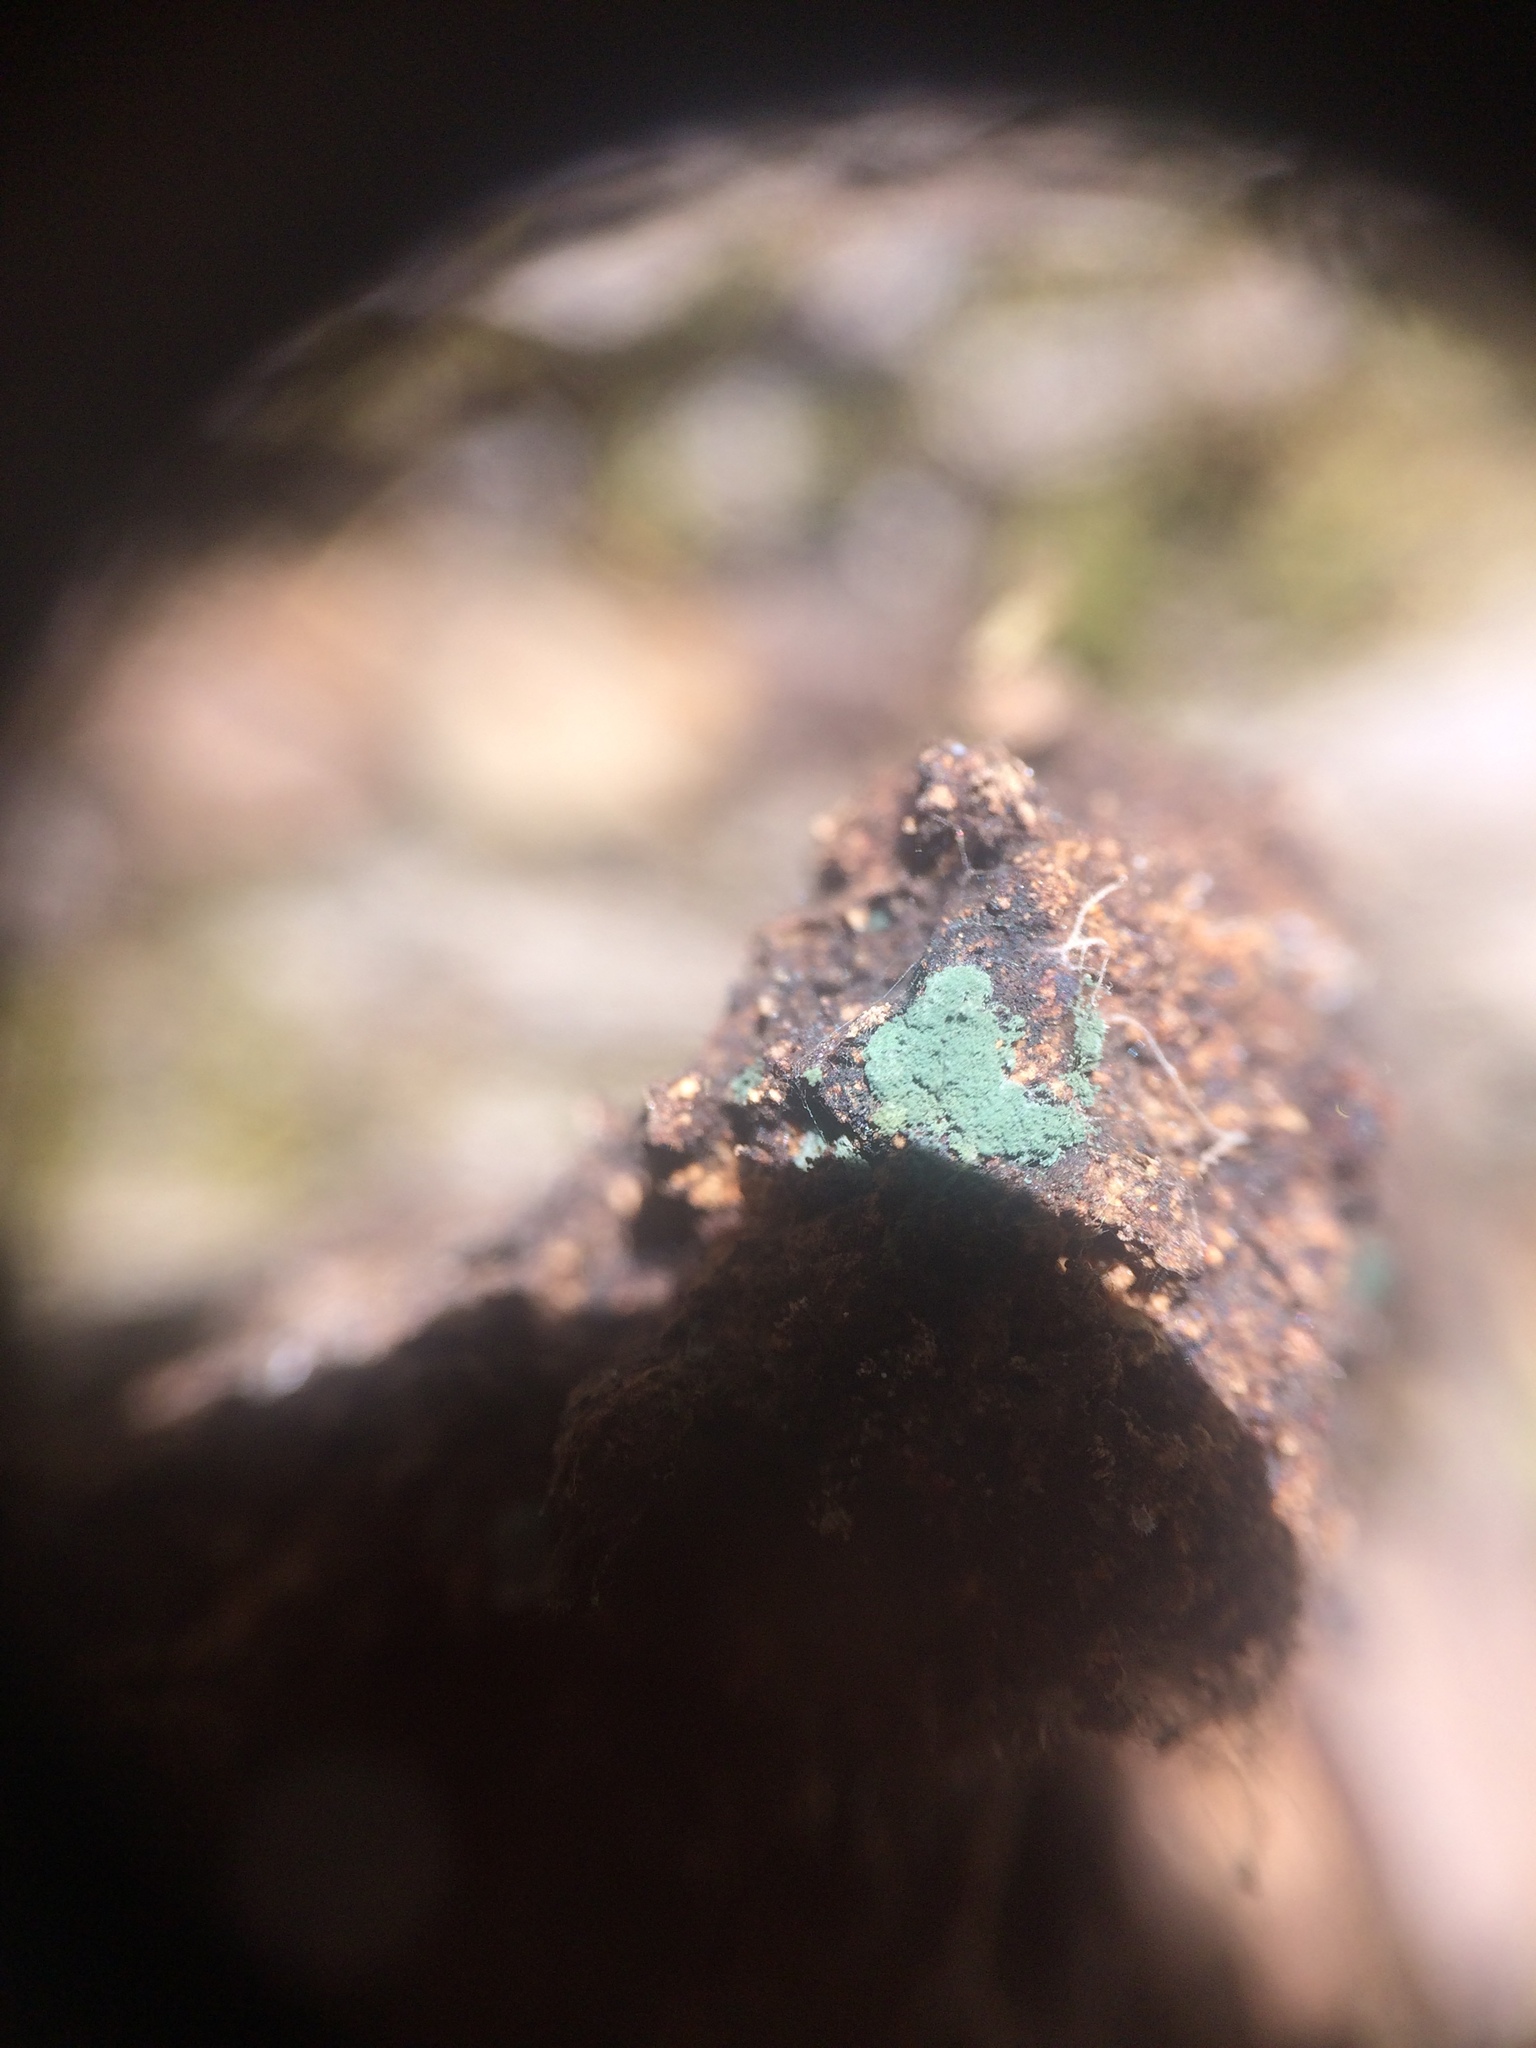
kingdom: Fungi
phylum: Ascomycota
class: Sordariomycetes
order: Hypocreales
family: Hypocreaceae
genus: Trichoderma
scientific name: Trichoderma viride
